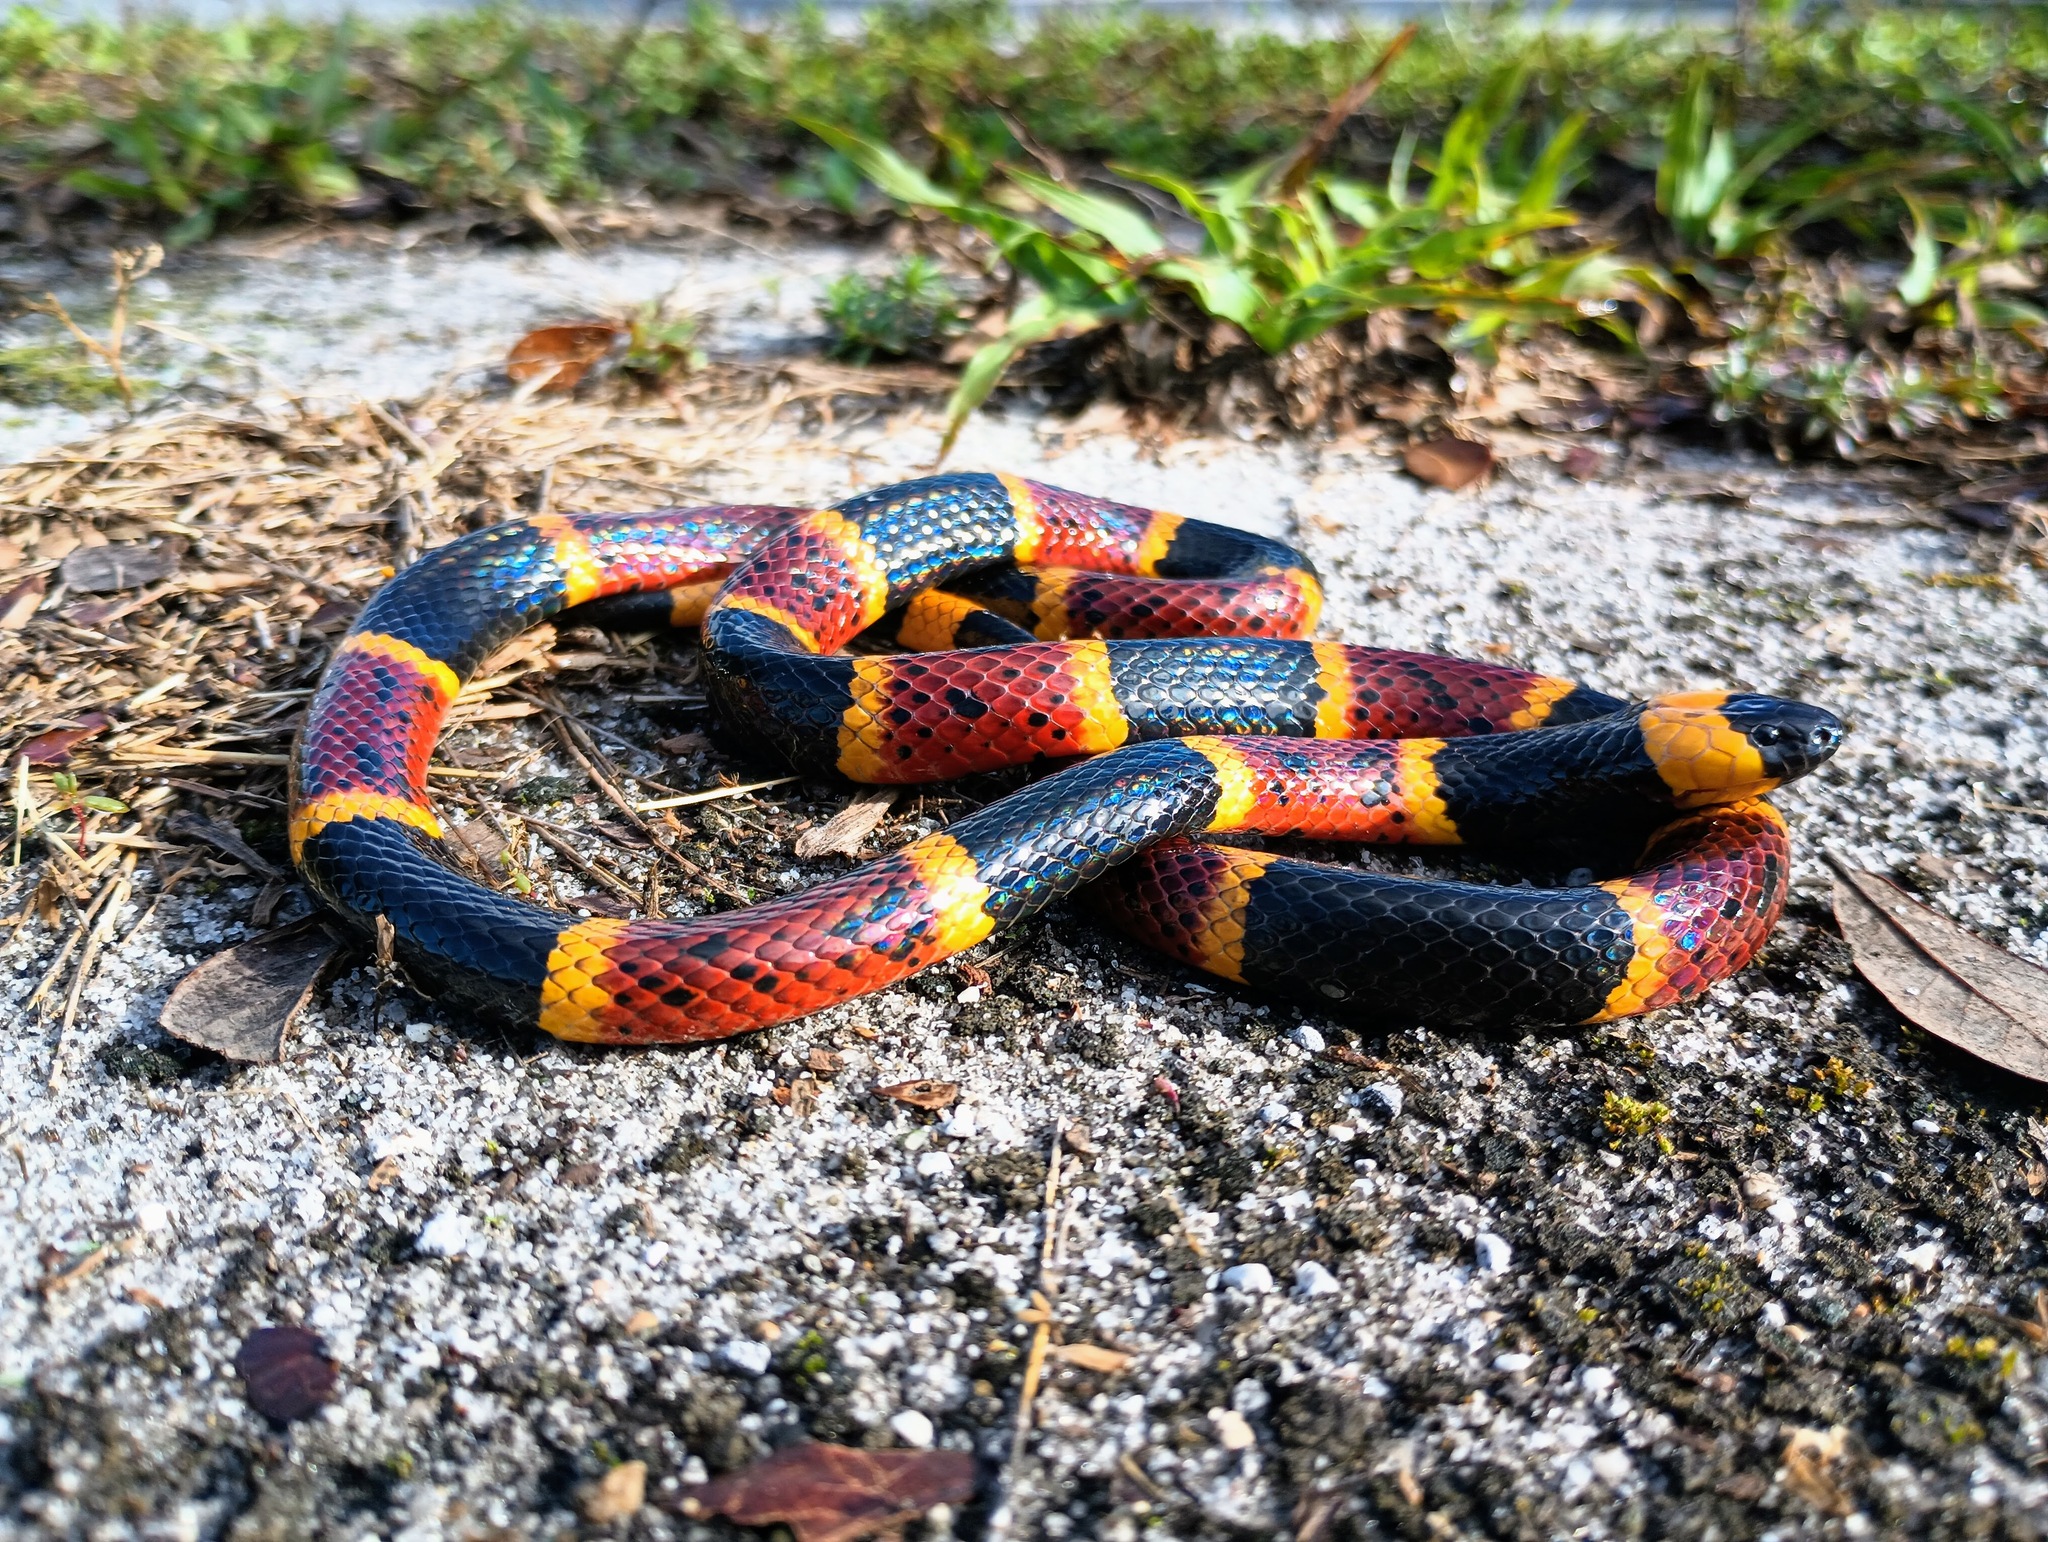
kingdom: Animalia
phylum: Chordata
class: Squamata
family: Elapidae
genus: Micrurus
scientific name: Micrurus fulvius
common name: Eastern coral snake
